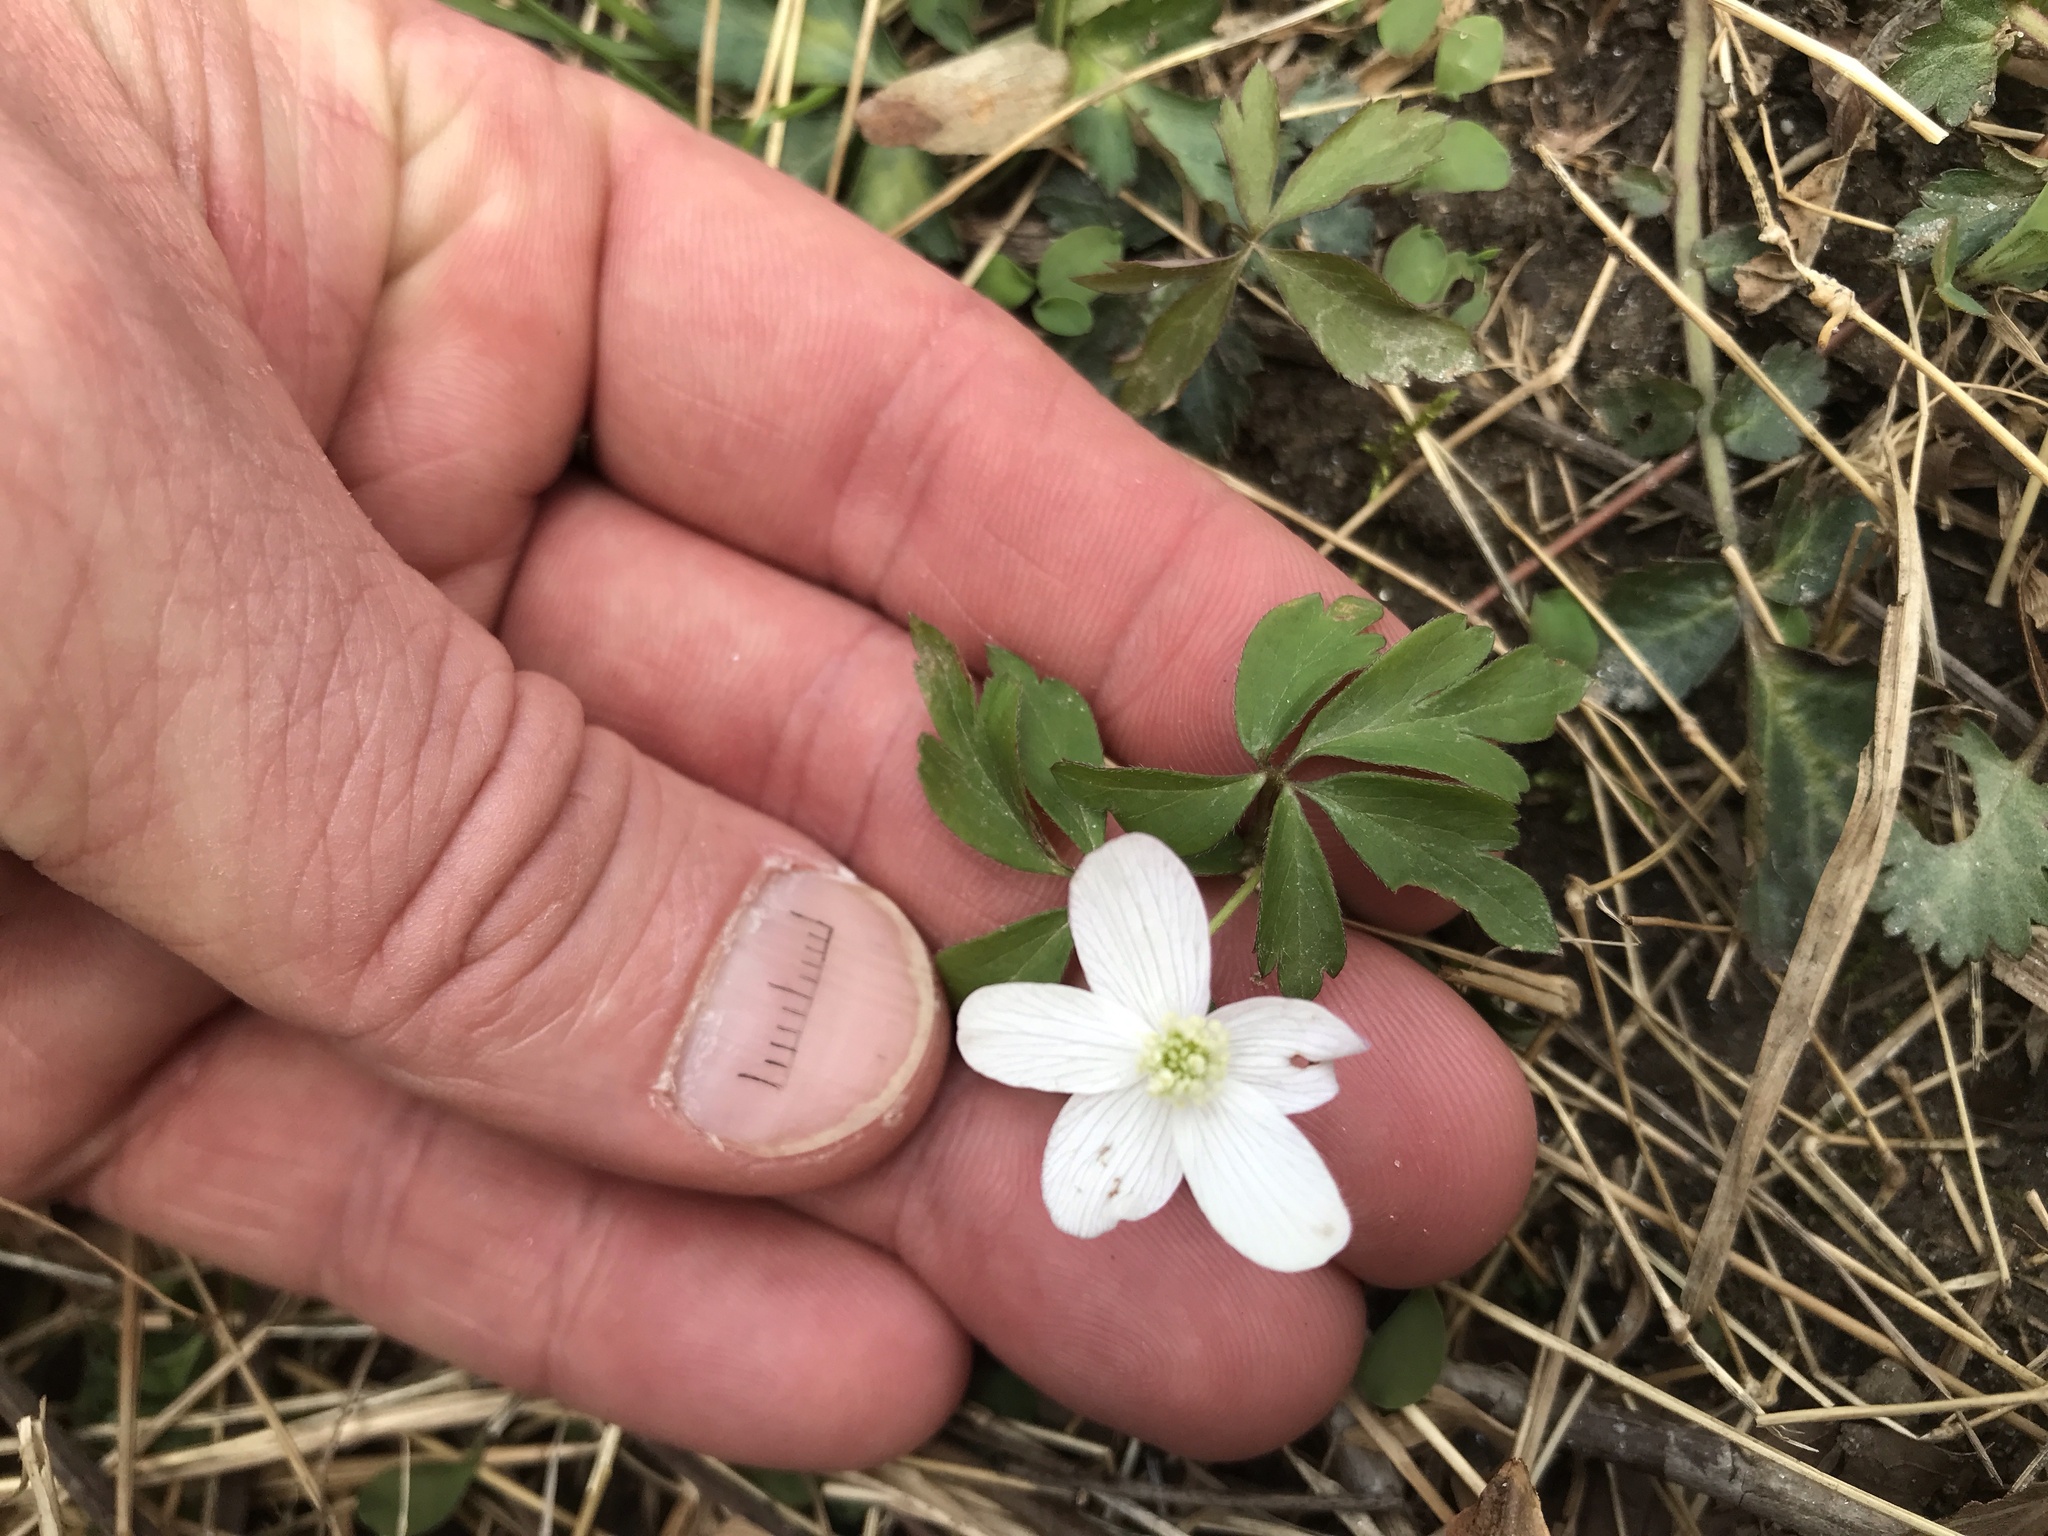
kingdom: Plantae
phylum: Tracheophyta
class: Magnoliopsida
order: Ranunculales
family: Ranunculaceae
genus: Anemone
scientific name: Anemone quinquefolia
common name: Wood anemone
